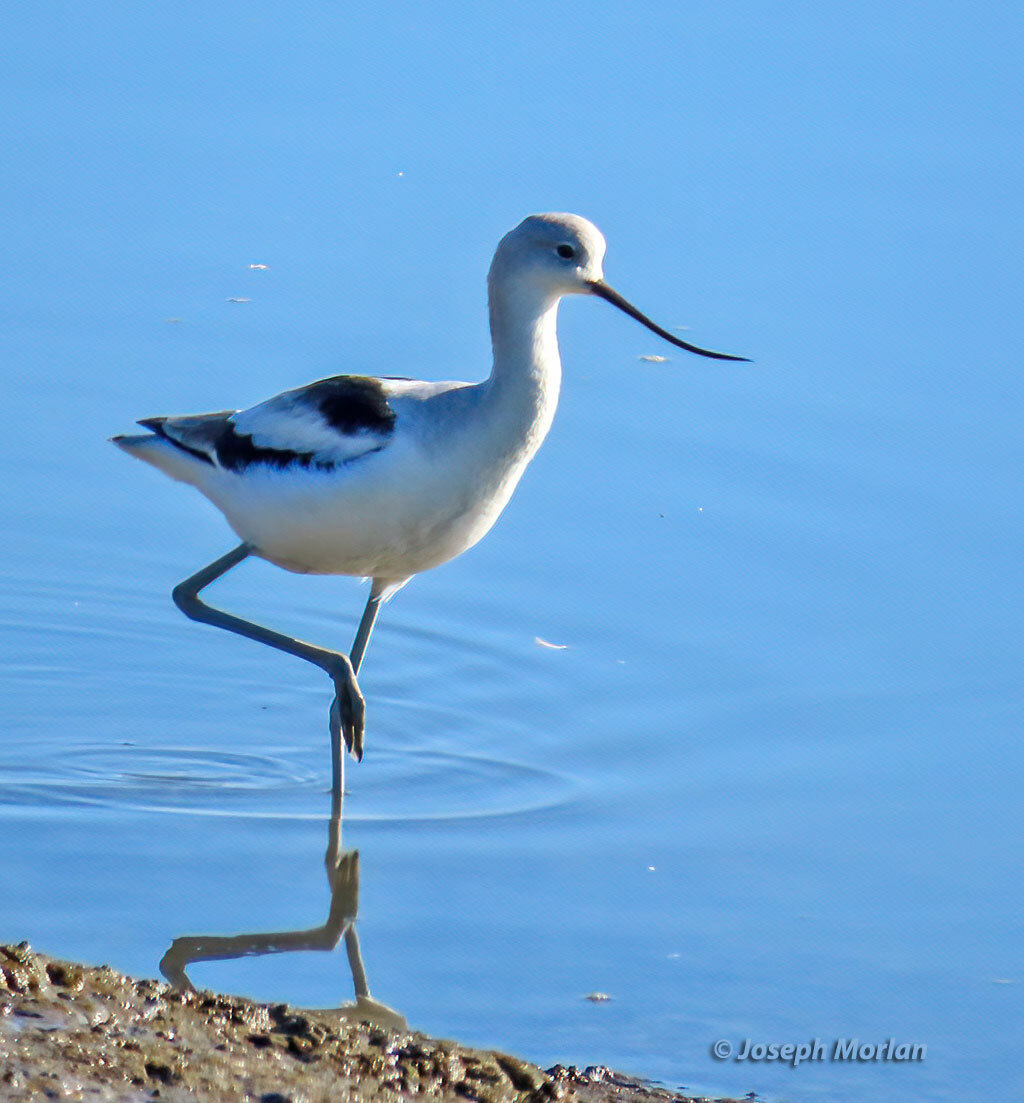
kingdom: Animalia
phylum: Chordata
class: Aves
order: Charadriiformes
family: Recurvirostridae
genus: Recurvirostra
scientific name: Recurvirostra americana
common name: American avocet
